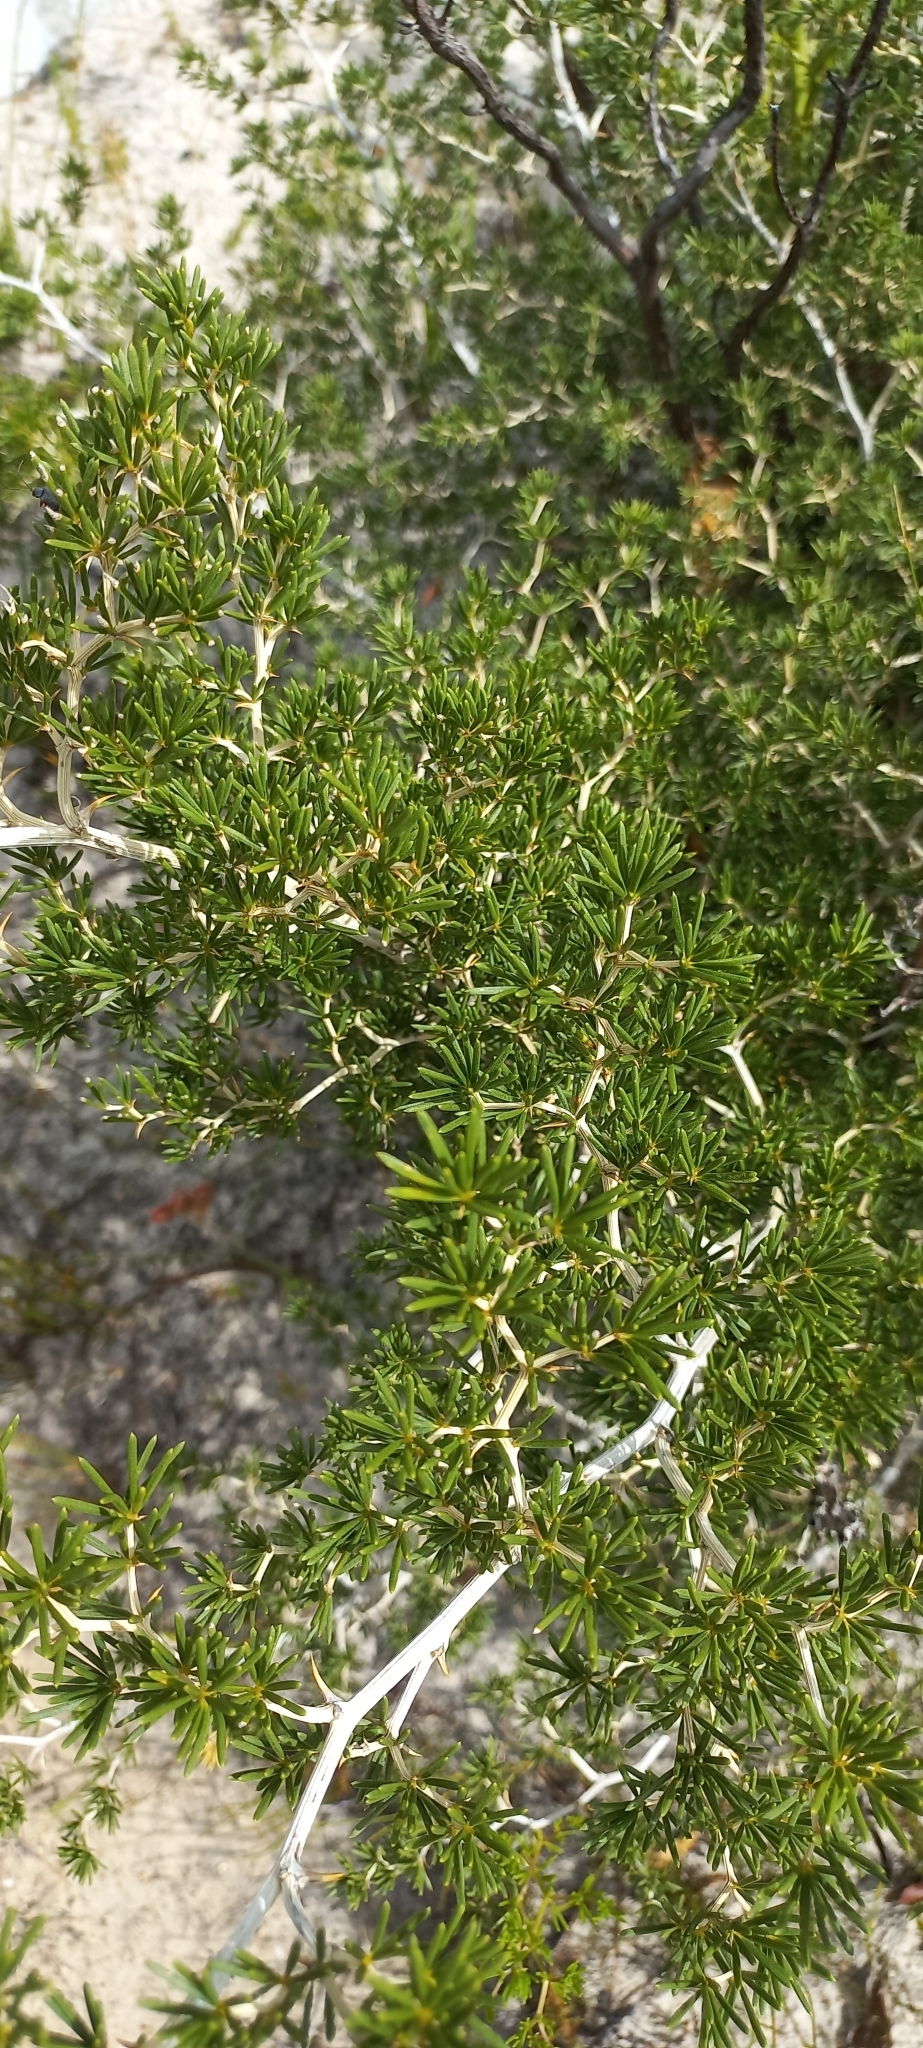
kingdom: Plantae
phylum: Tracheophyta
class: Liliopsida
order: Asparagales
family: Asparagaceae
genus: Asparagus
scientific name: Asparagus lignosus
